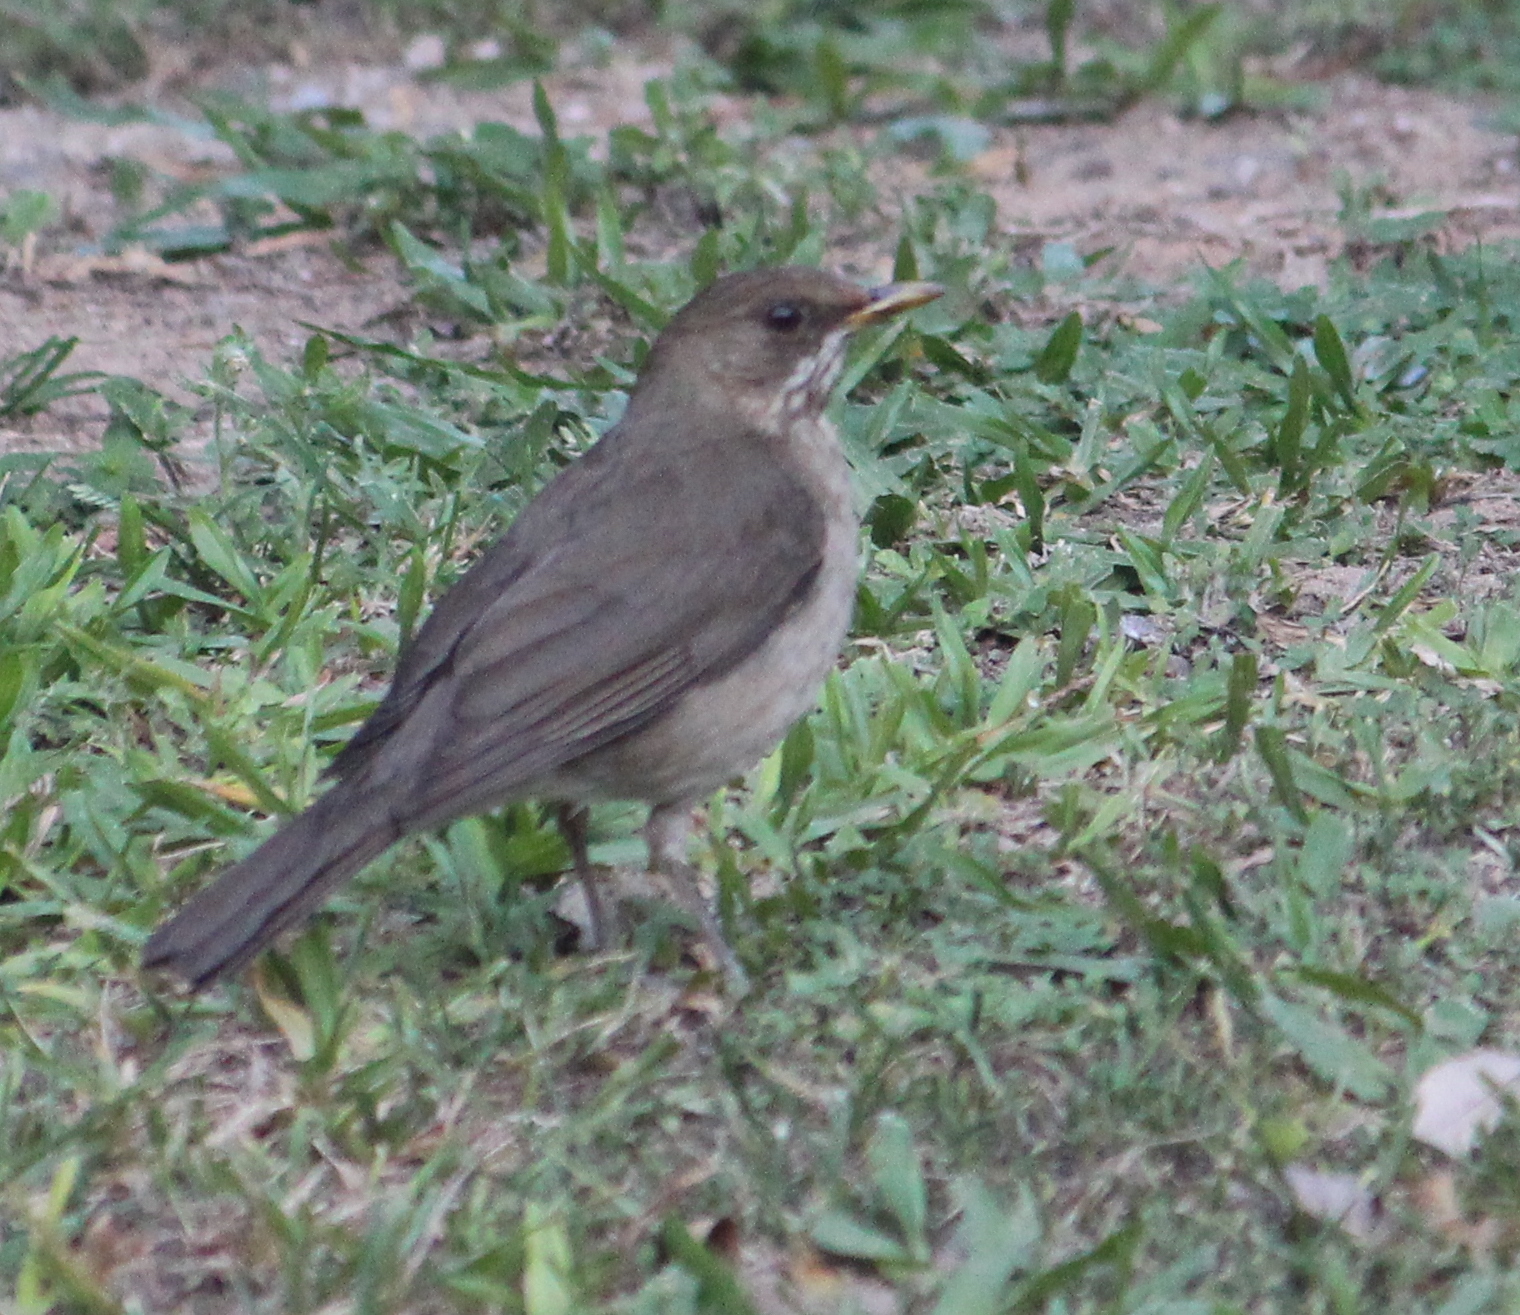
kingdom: Animalia
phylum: Chordata
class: Aves
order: Passeriformes
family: Turdidae
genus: Turdus
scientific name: Turdus amaurochalinus
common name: Creamy-bellied thrush
